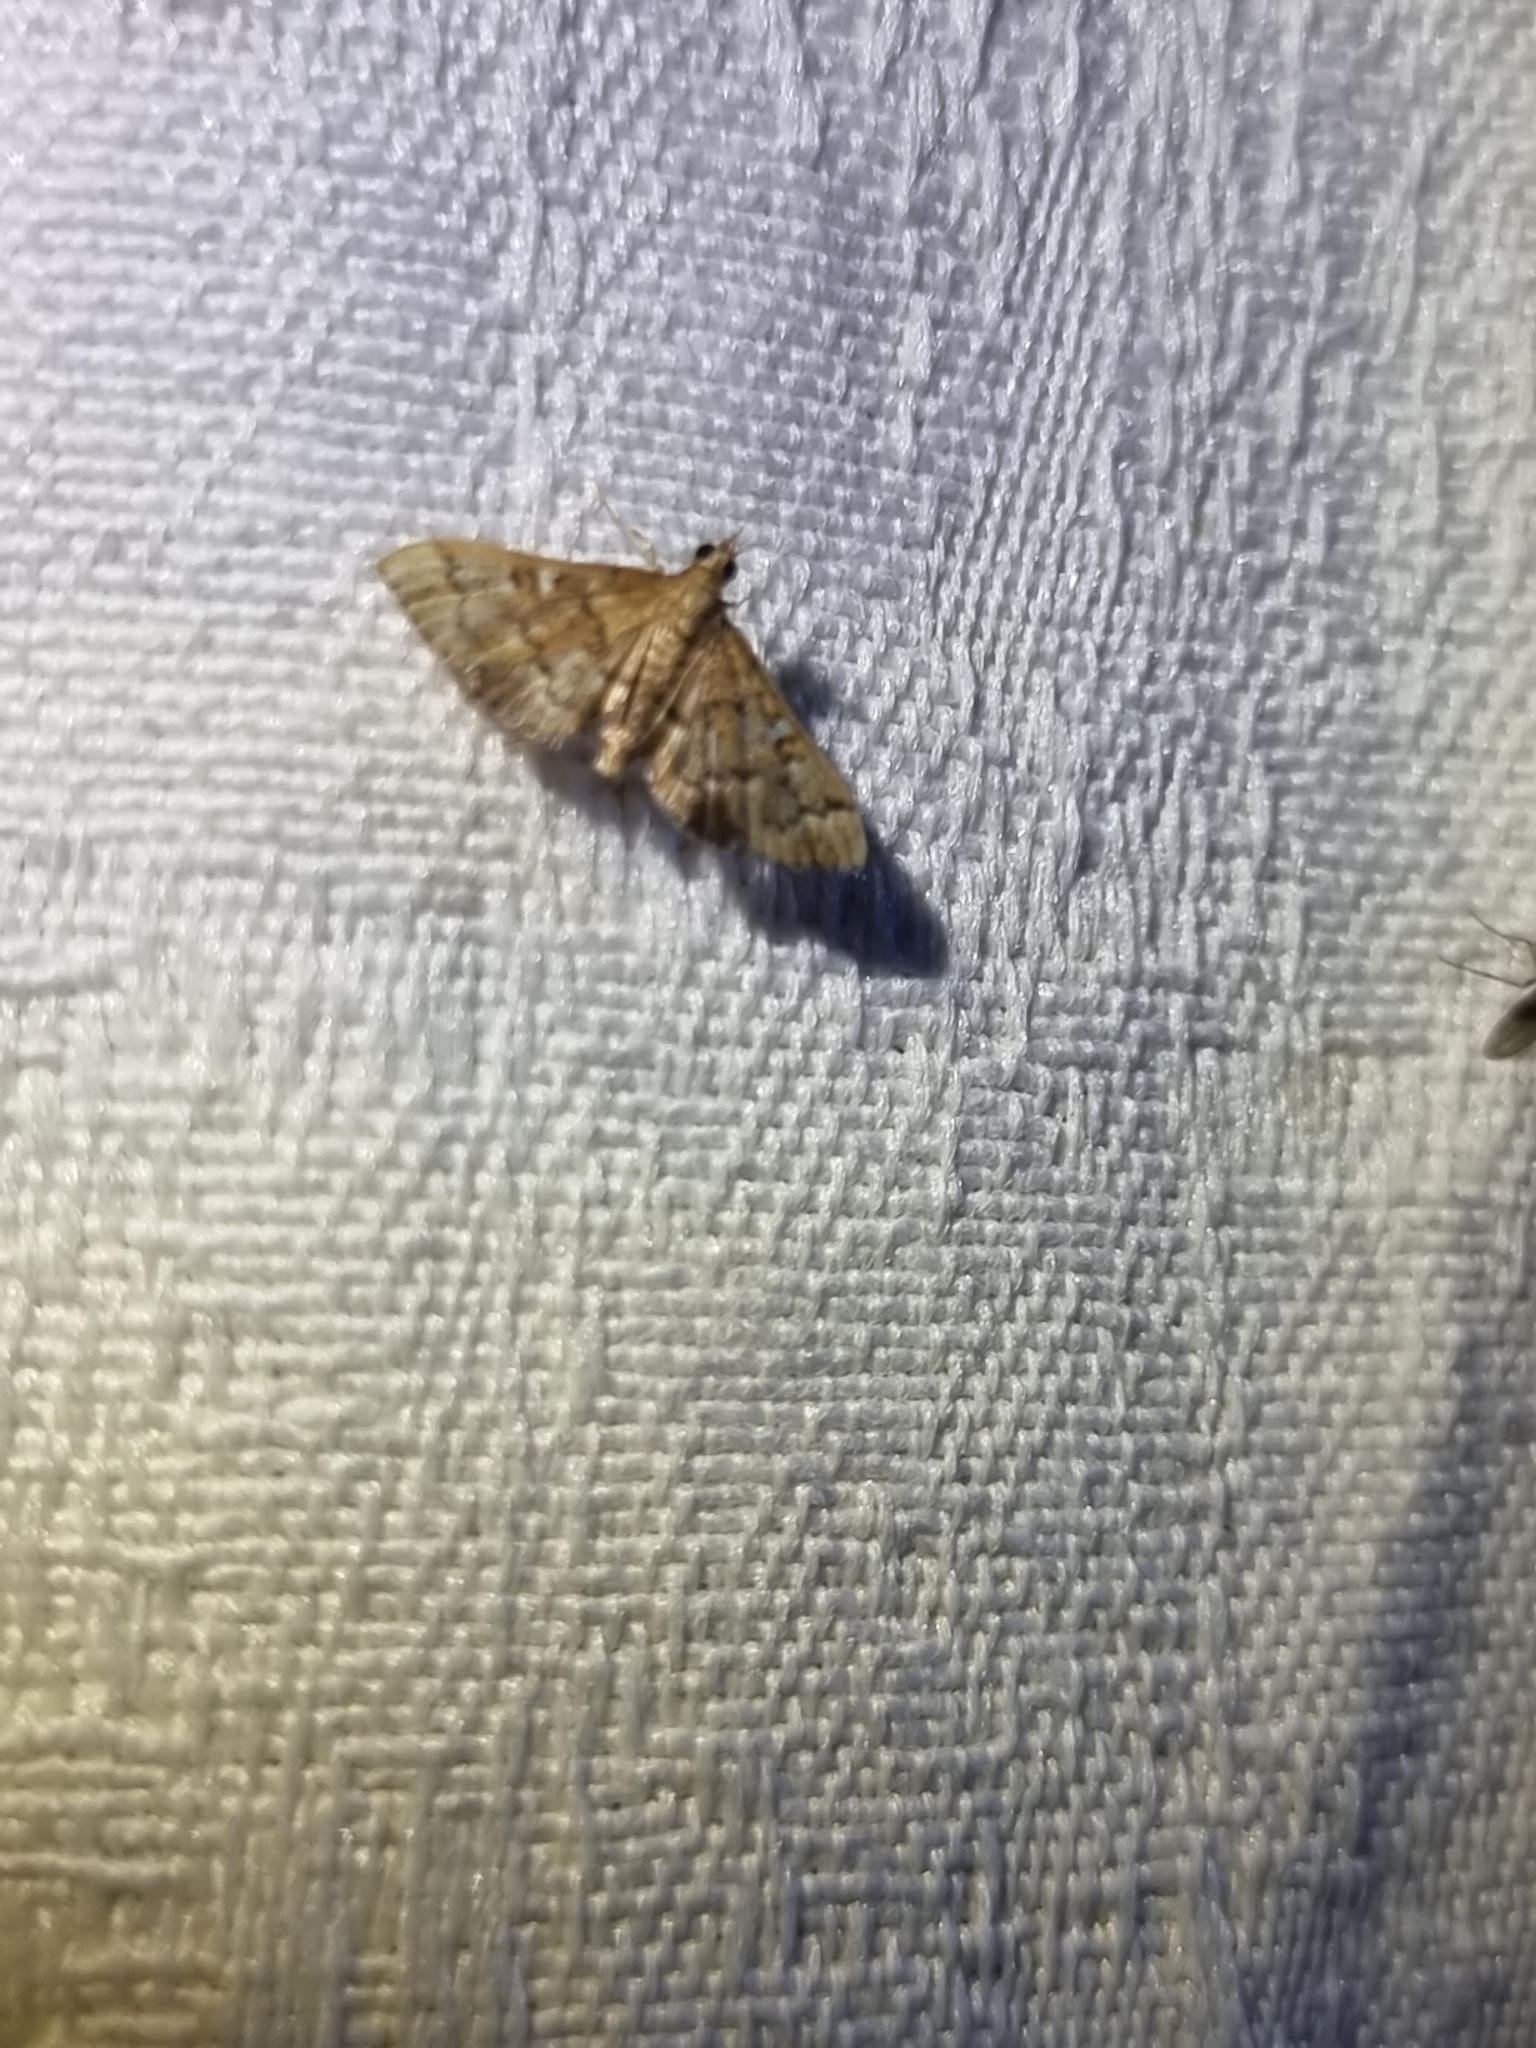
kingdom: Animalia
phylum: Arthropoda
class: Insecta
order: Lepidoptera
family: Crambidae
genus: Nacoleia
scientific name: Nacoleia rhoeoalis
